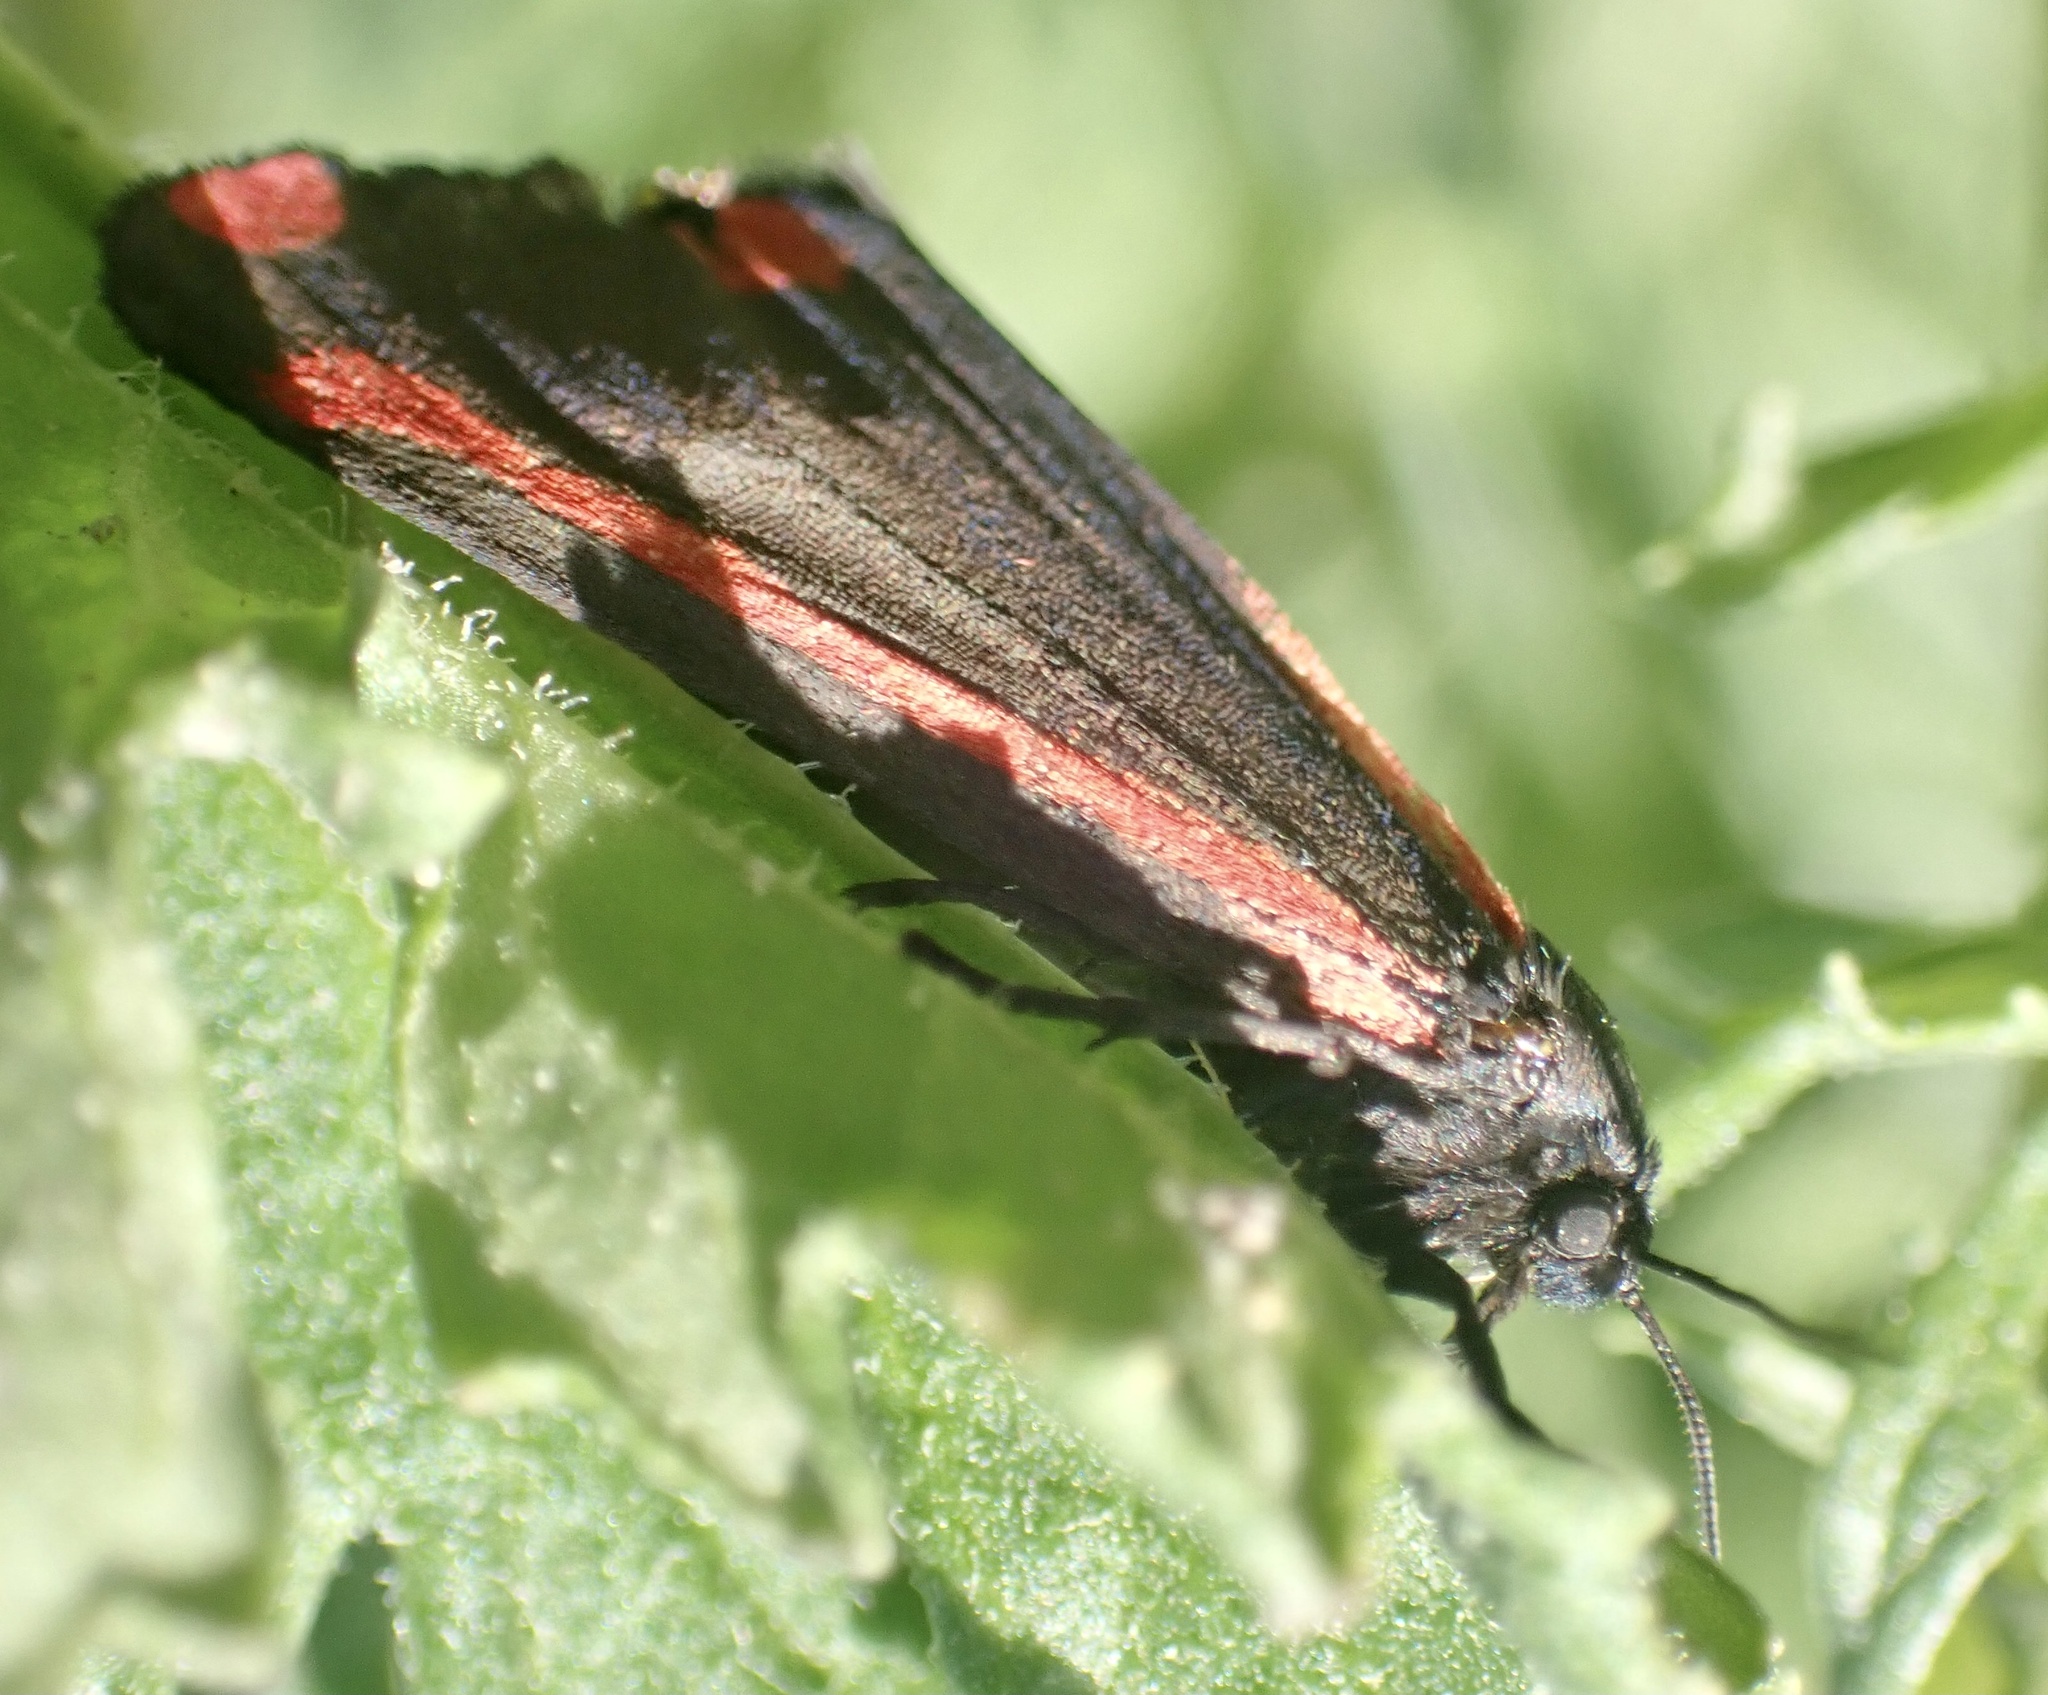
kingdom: Animalia
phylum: Arthropoda
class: Insecta
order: Lepidoptera
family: Erebidae
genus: Tyria
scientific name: Tyria jacobaeae
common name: Cinnabar
